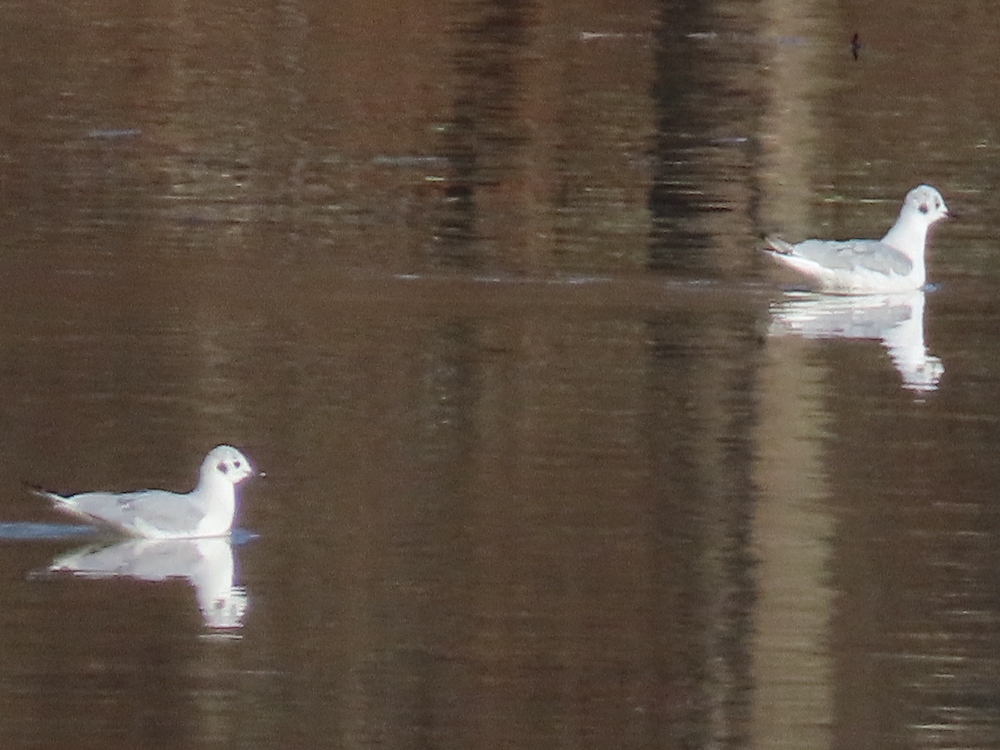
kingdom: Animalia
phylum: Chordata
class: Aves
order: Charadriiformes
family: Laridae
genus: Chroicocephalus
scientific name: Chroicocephalus philadelphia
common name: Bonaparte's gull
